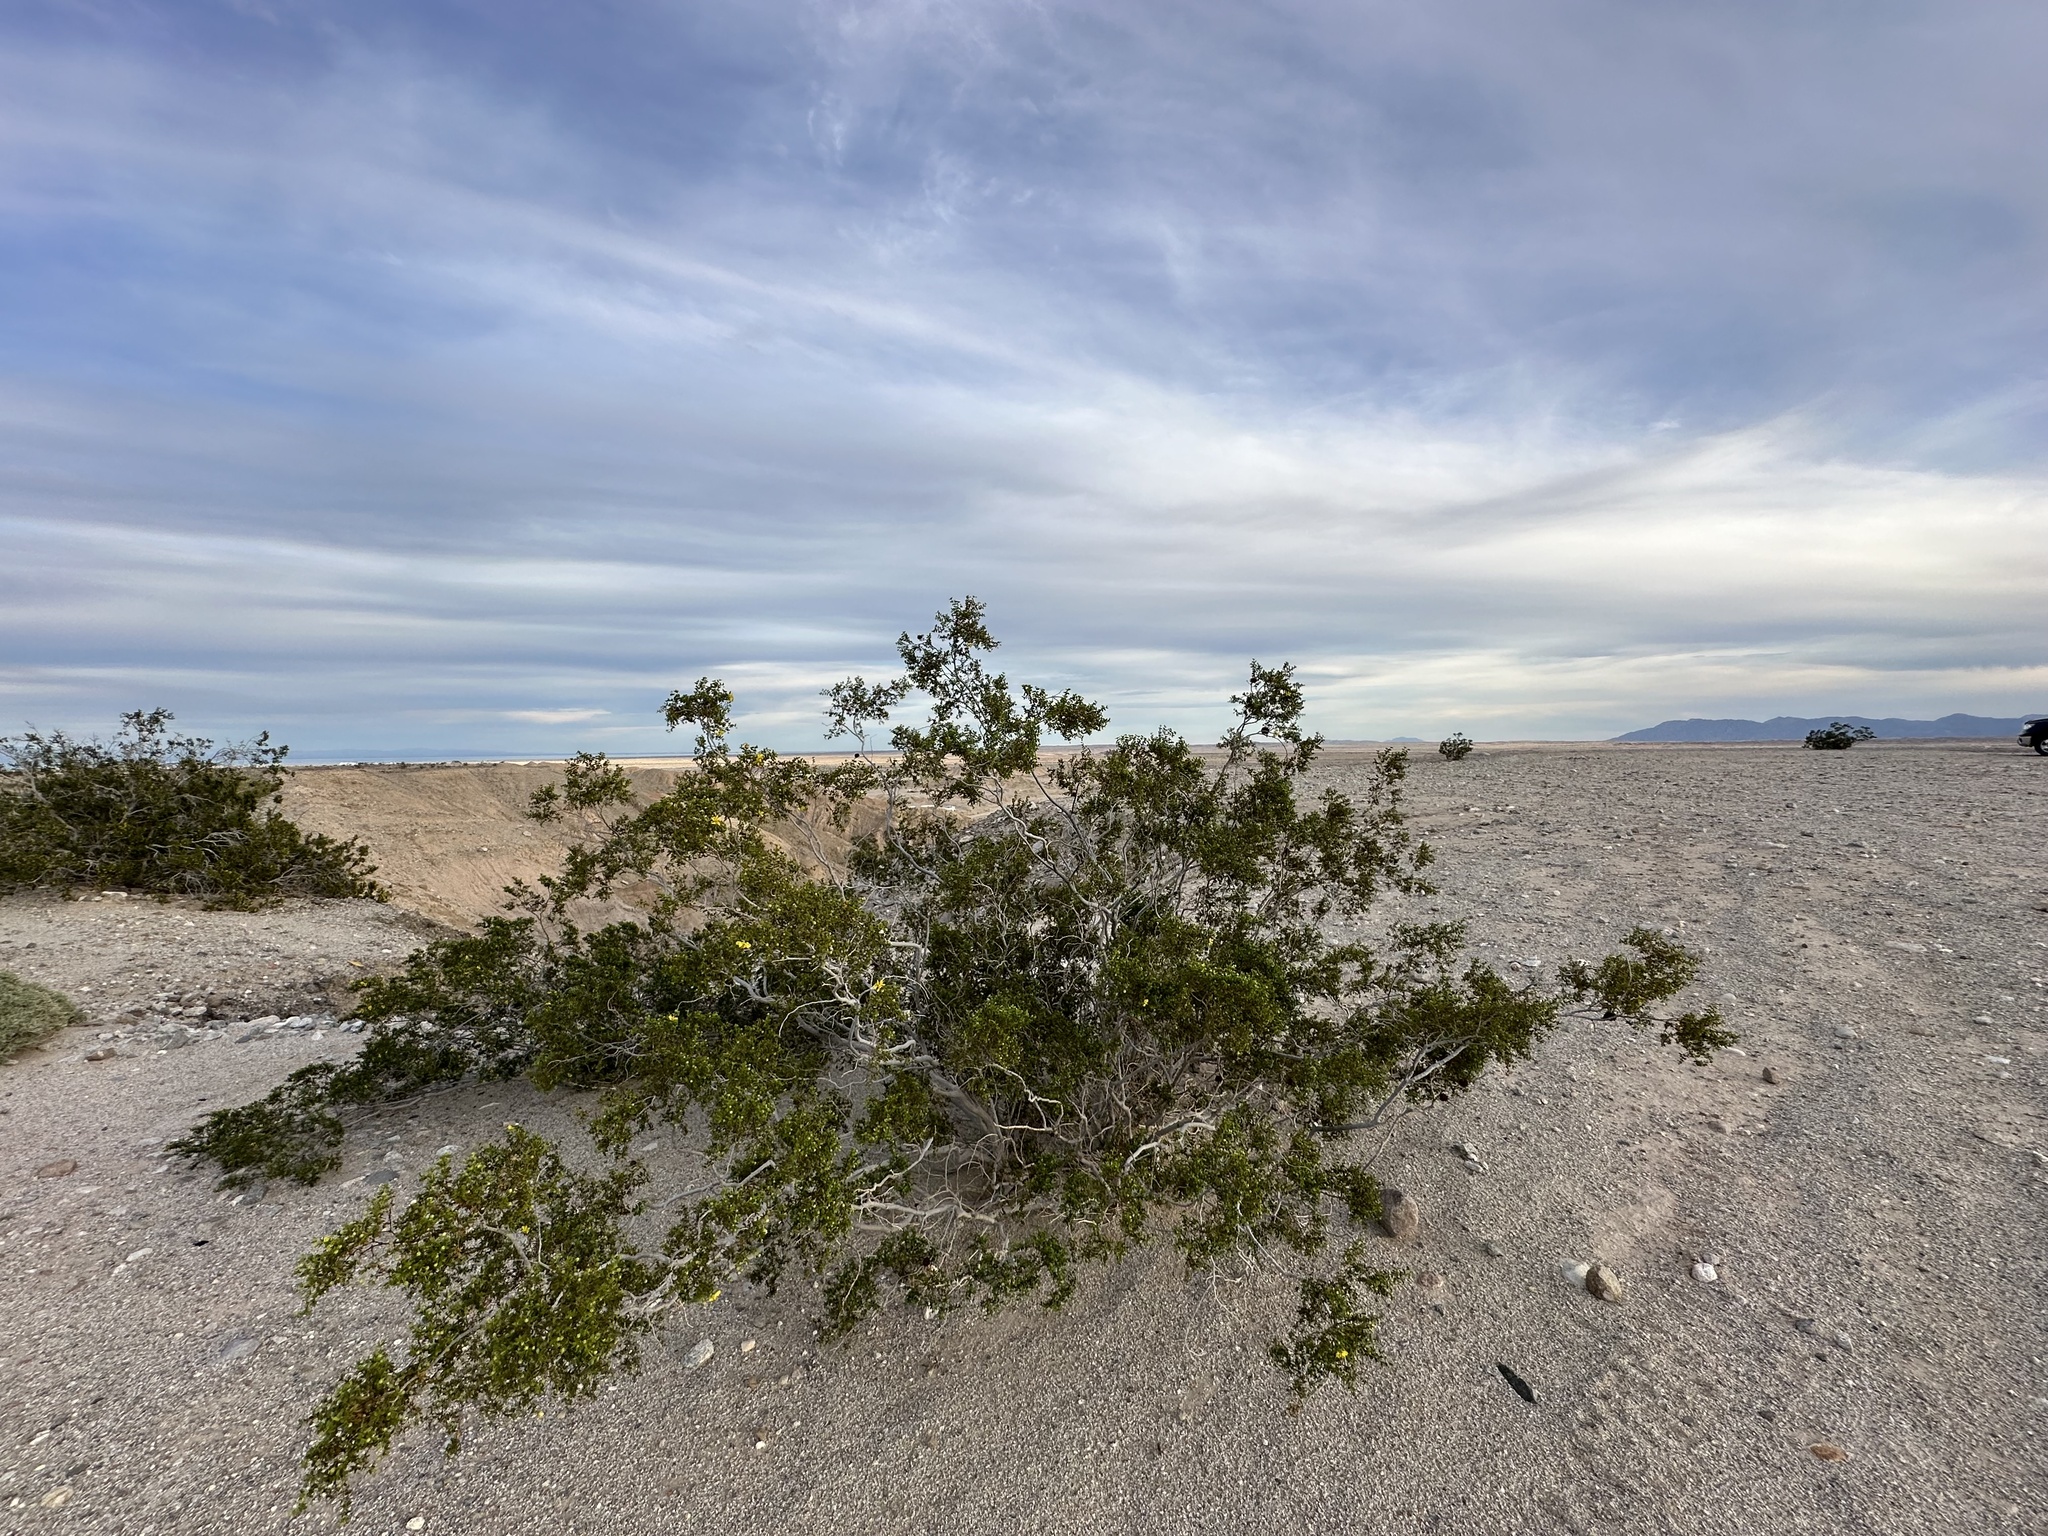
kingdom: Plantae
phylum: Tracheophyta
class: Magnoliopsida
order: Zygophyllales
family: Zygophyllaceae
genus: Larrea
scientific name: Larrea tridentata
